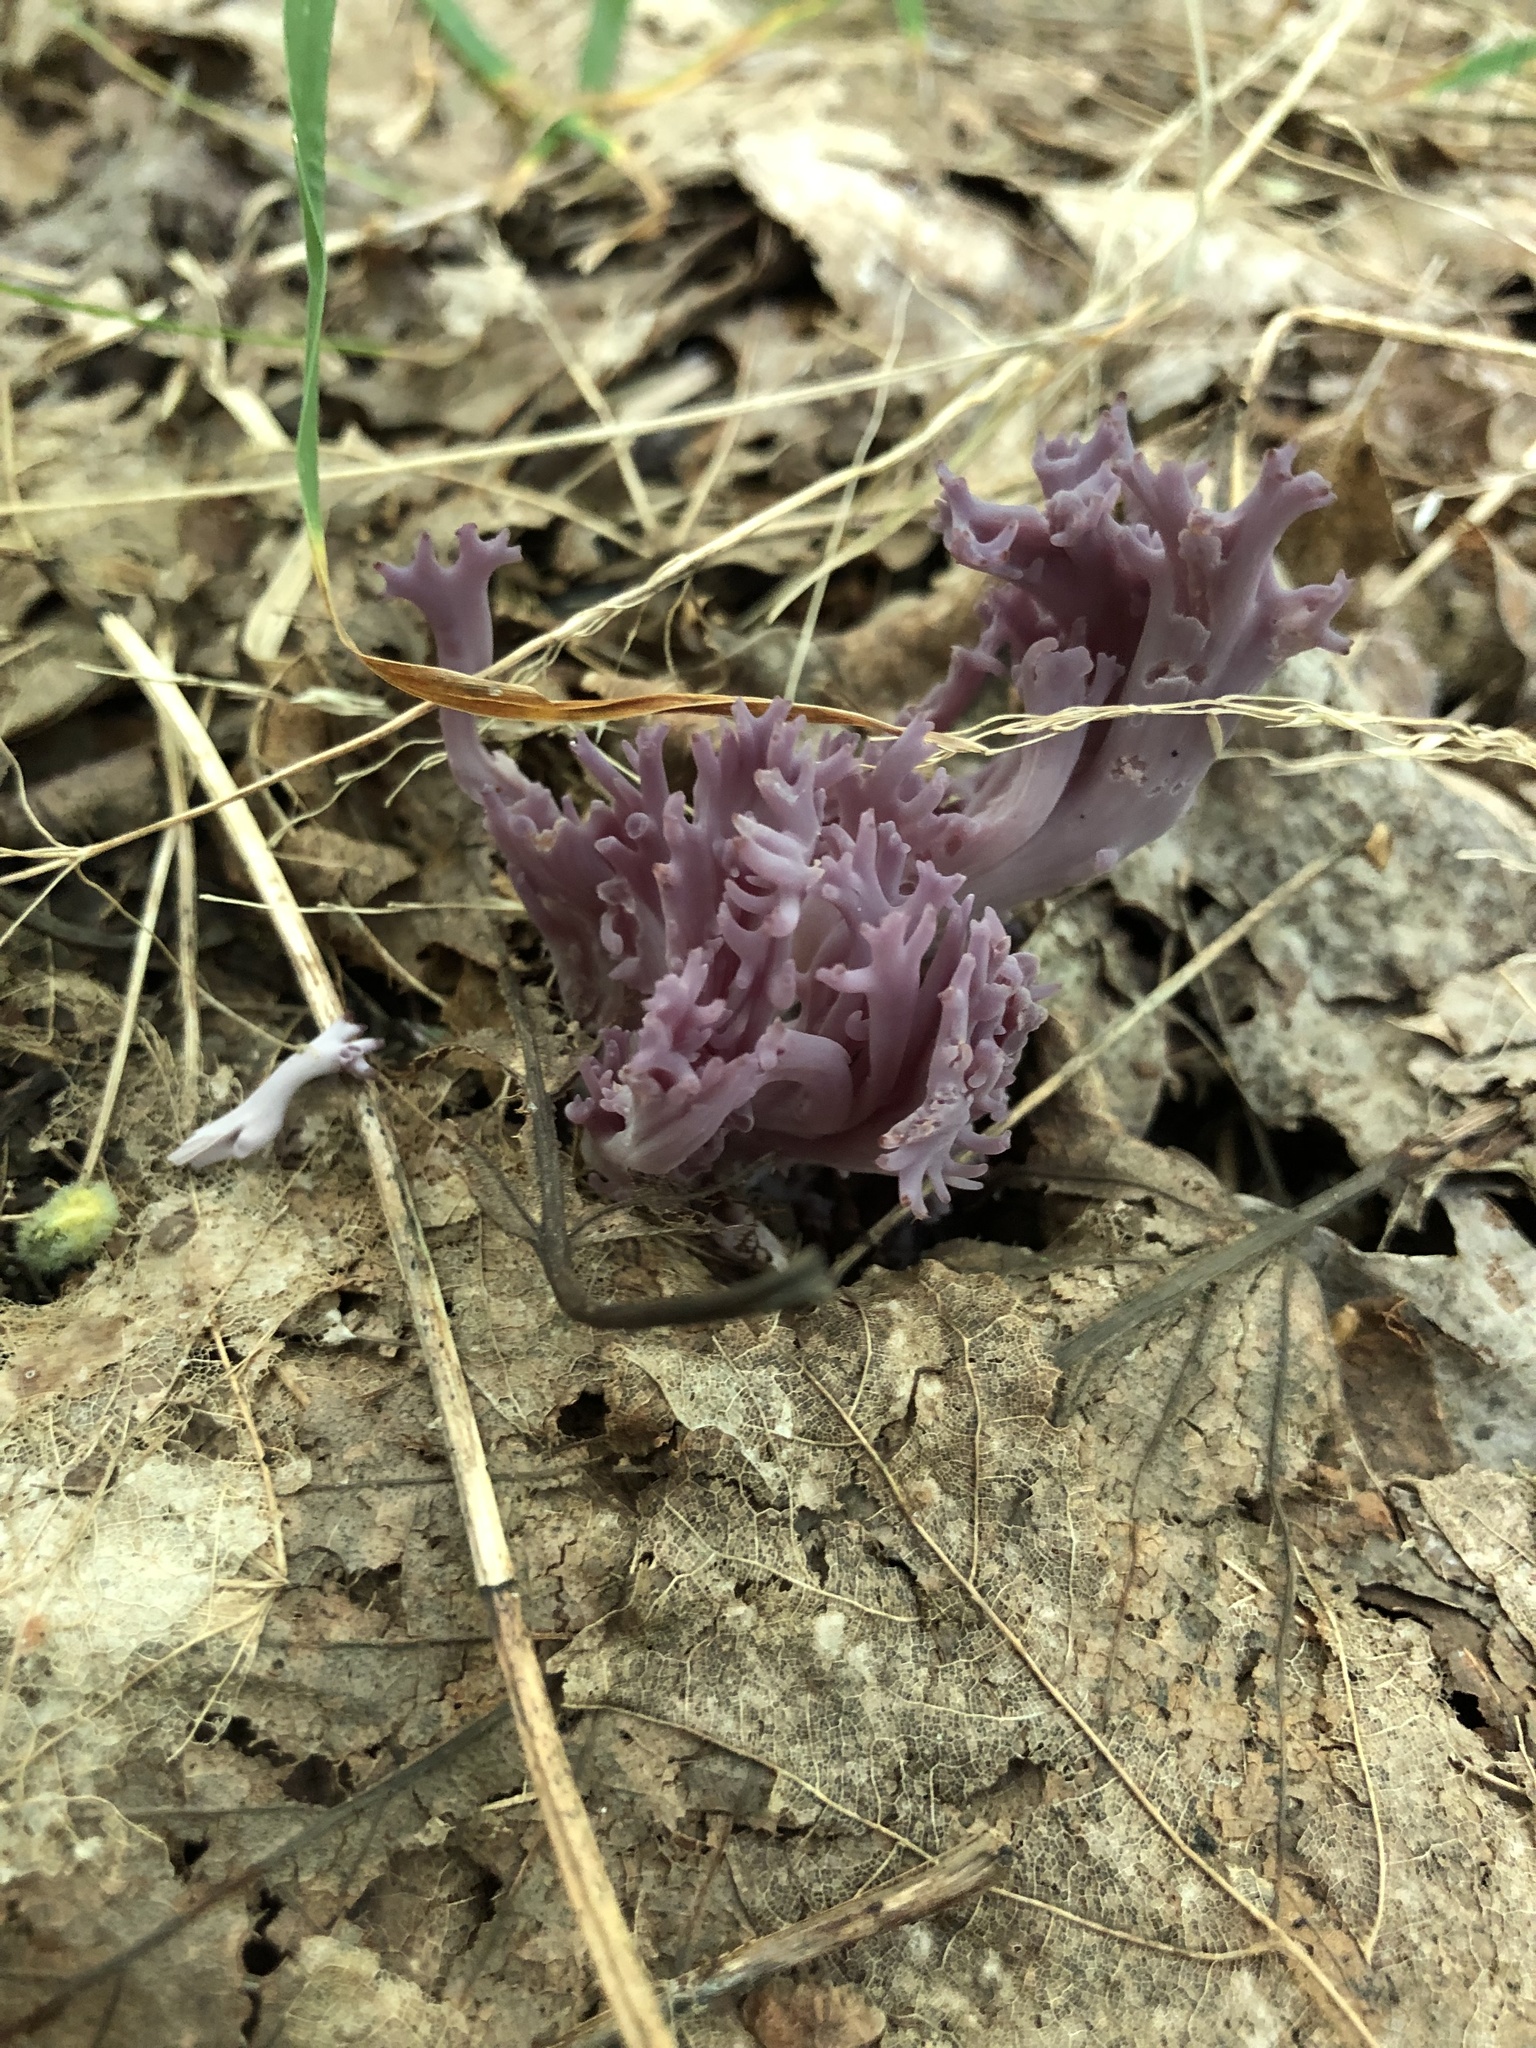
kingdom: Fungi
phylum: Basidiomycota
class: Agaricomycetes
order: Agaricales
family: Clavariaceae
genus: Clavaria
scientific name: Clavaria zollingeri
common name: Violet coral
